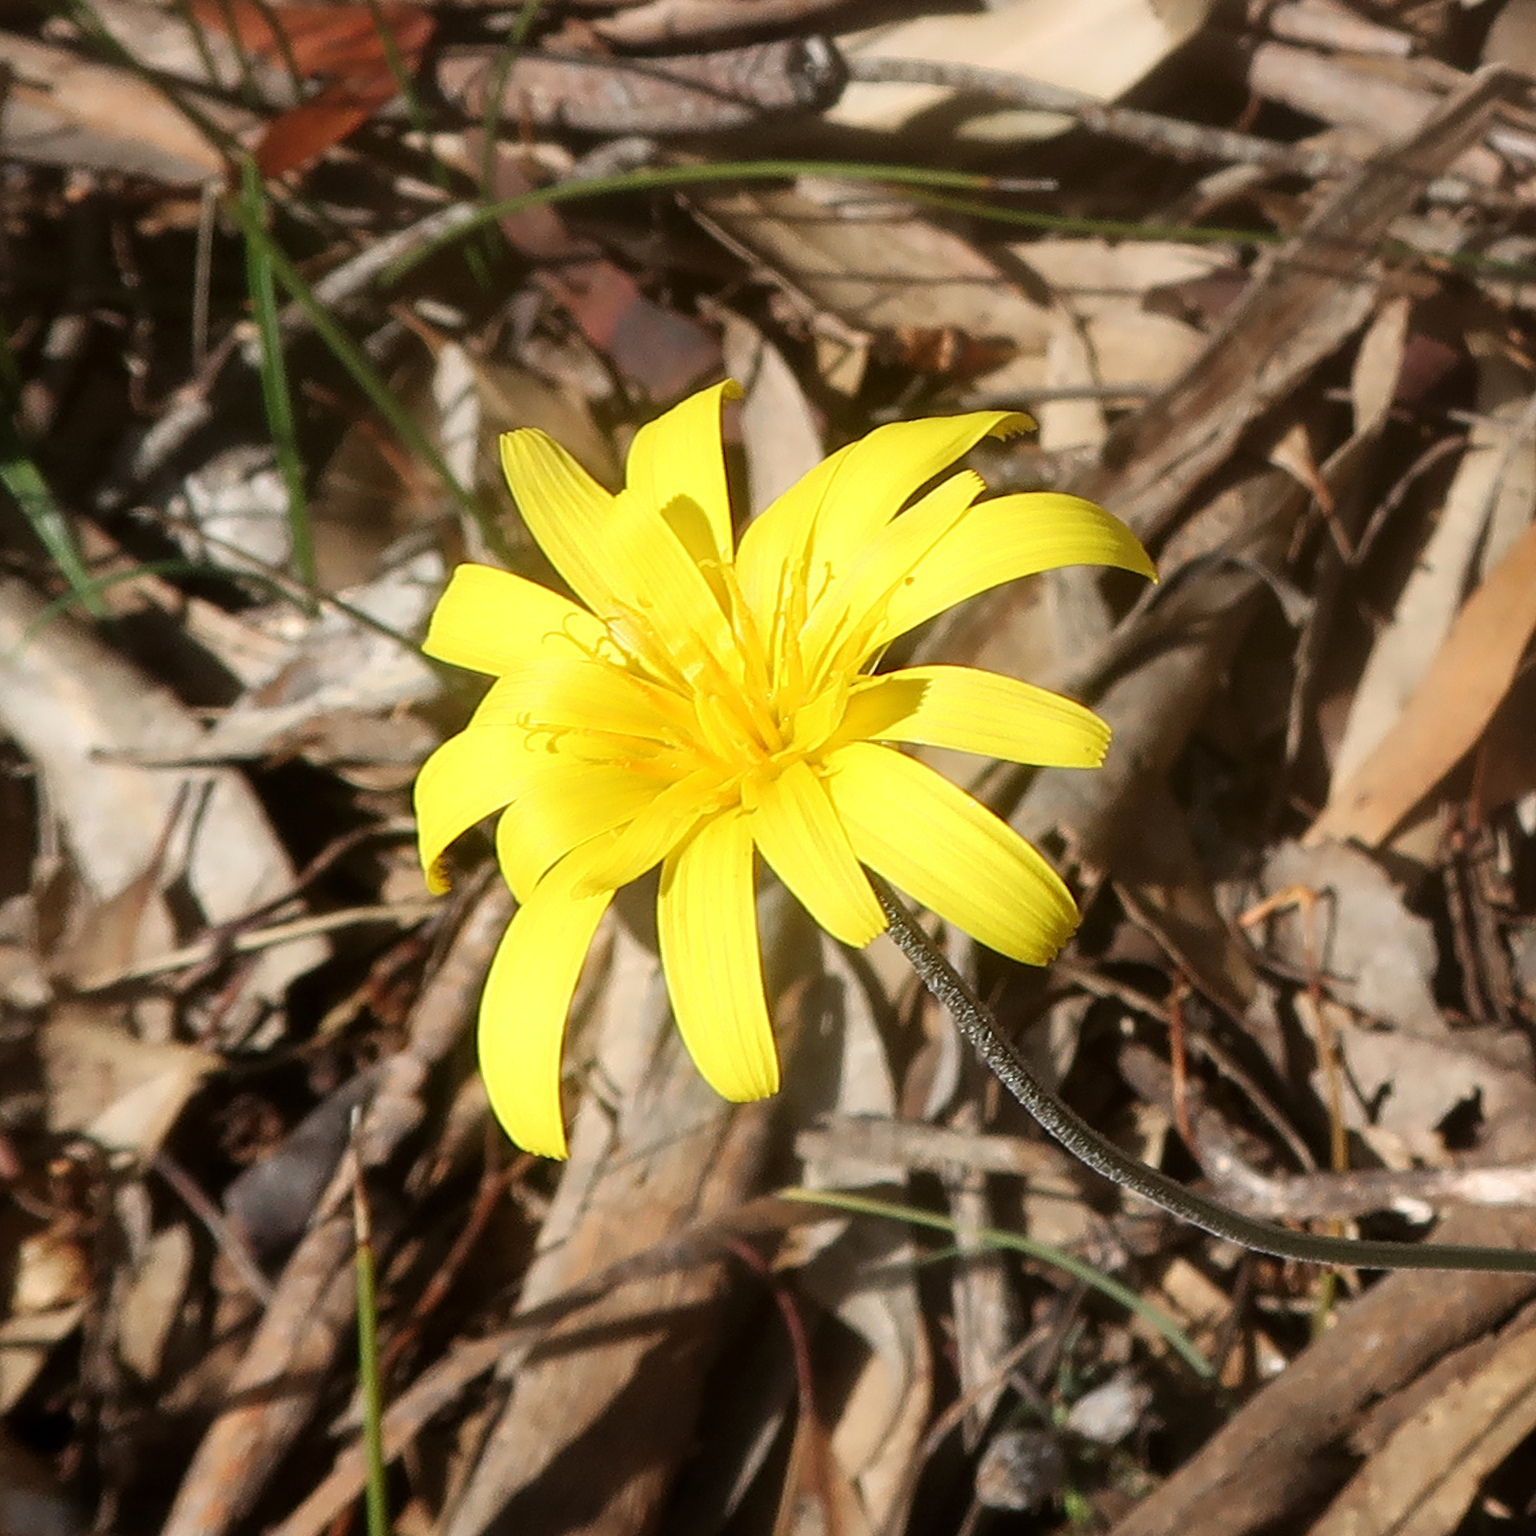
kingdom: Plantae
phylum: Tracheophyta
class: Magnoliopsida
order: Asterales
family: Asteraceae
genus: Microseris
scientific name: Microseris lanceolata
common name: Yam daisy
